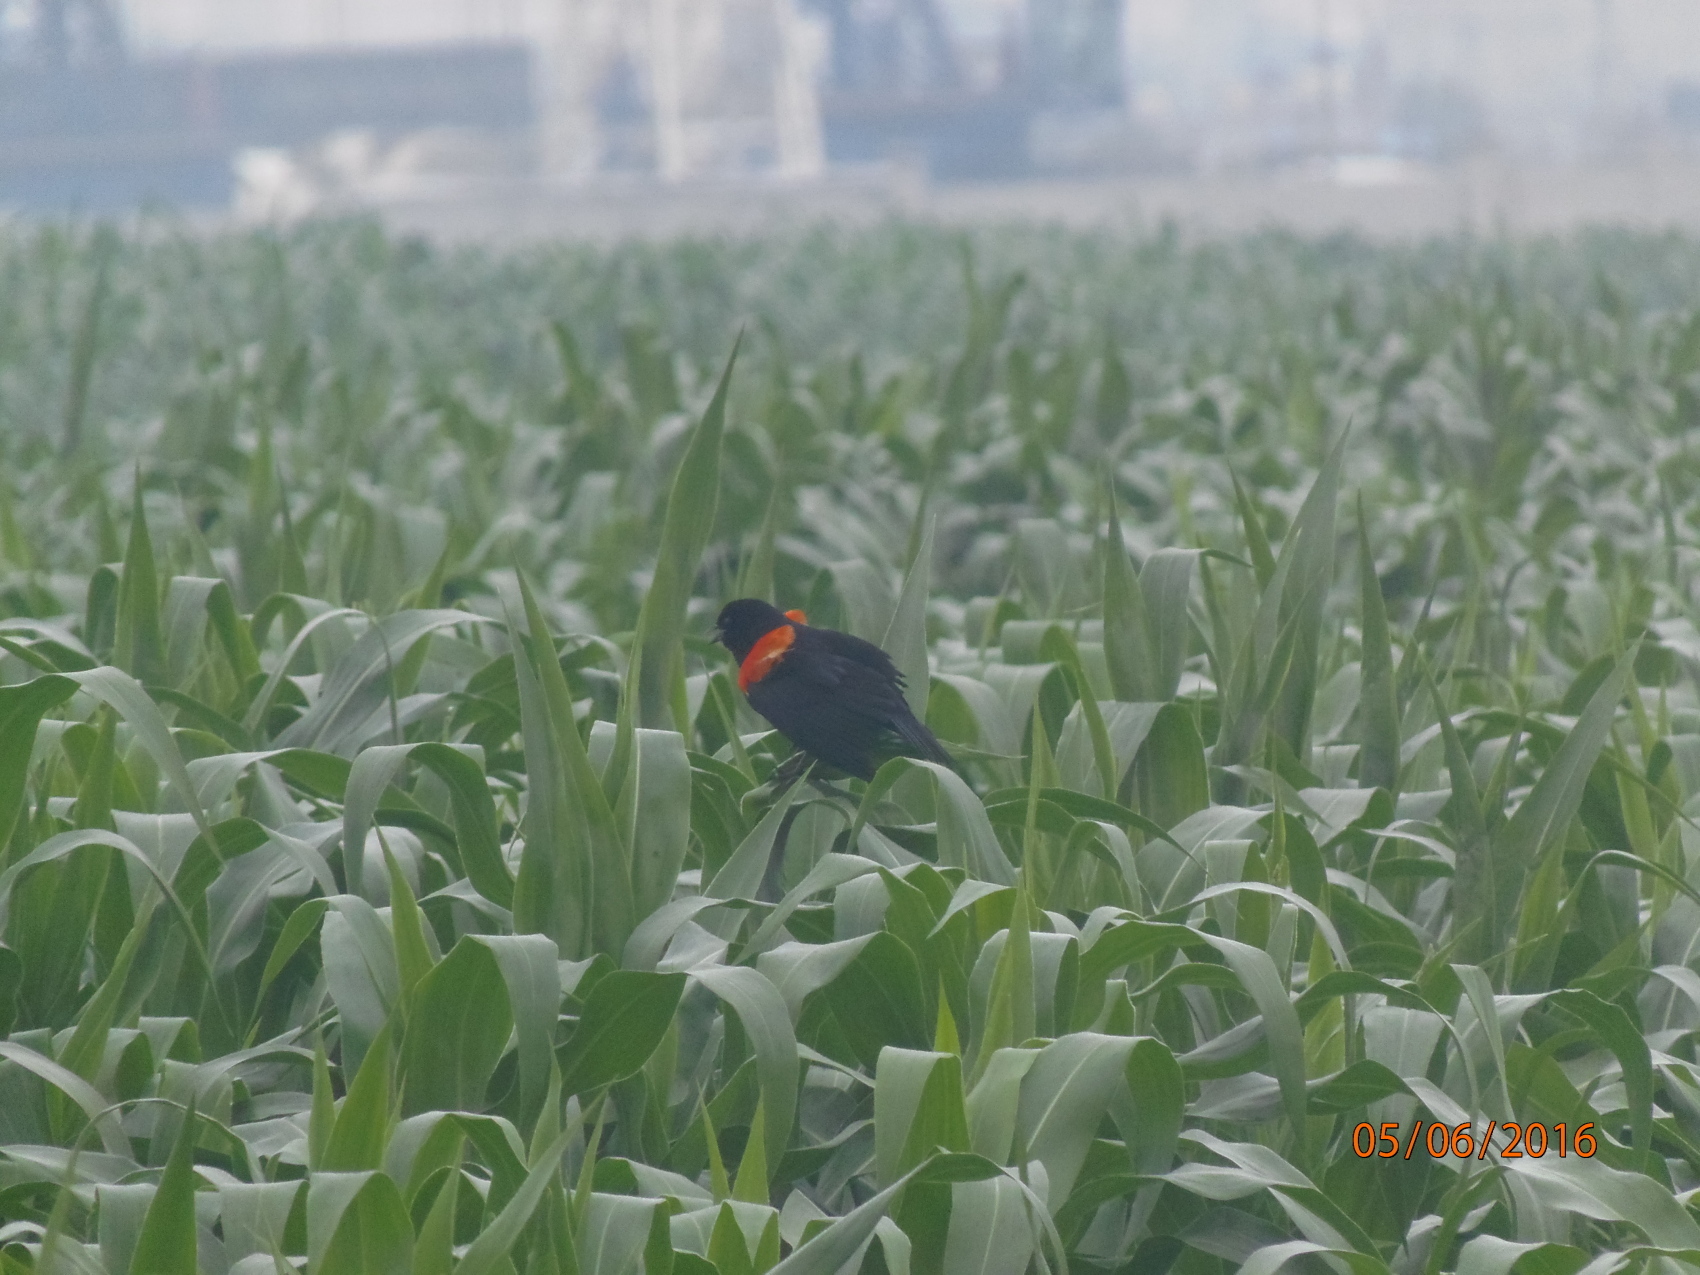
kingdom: Animalia
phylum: Chordata
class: Aves
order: Passeriformes
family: Icteridae
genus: Agelaius
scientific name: Agelaius phoeniceus
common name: Red-winged blackbird
